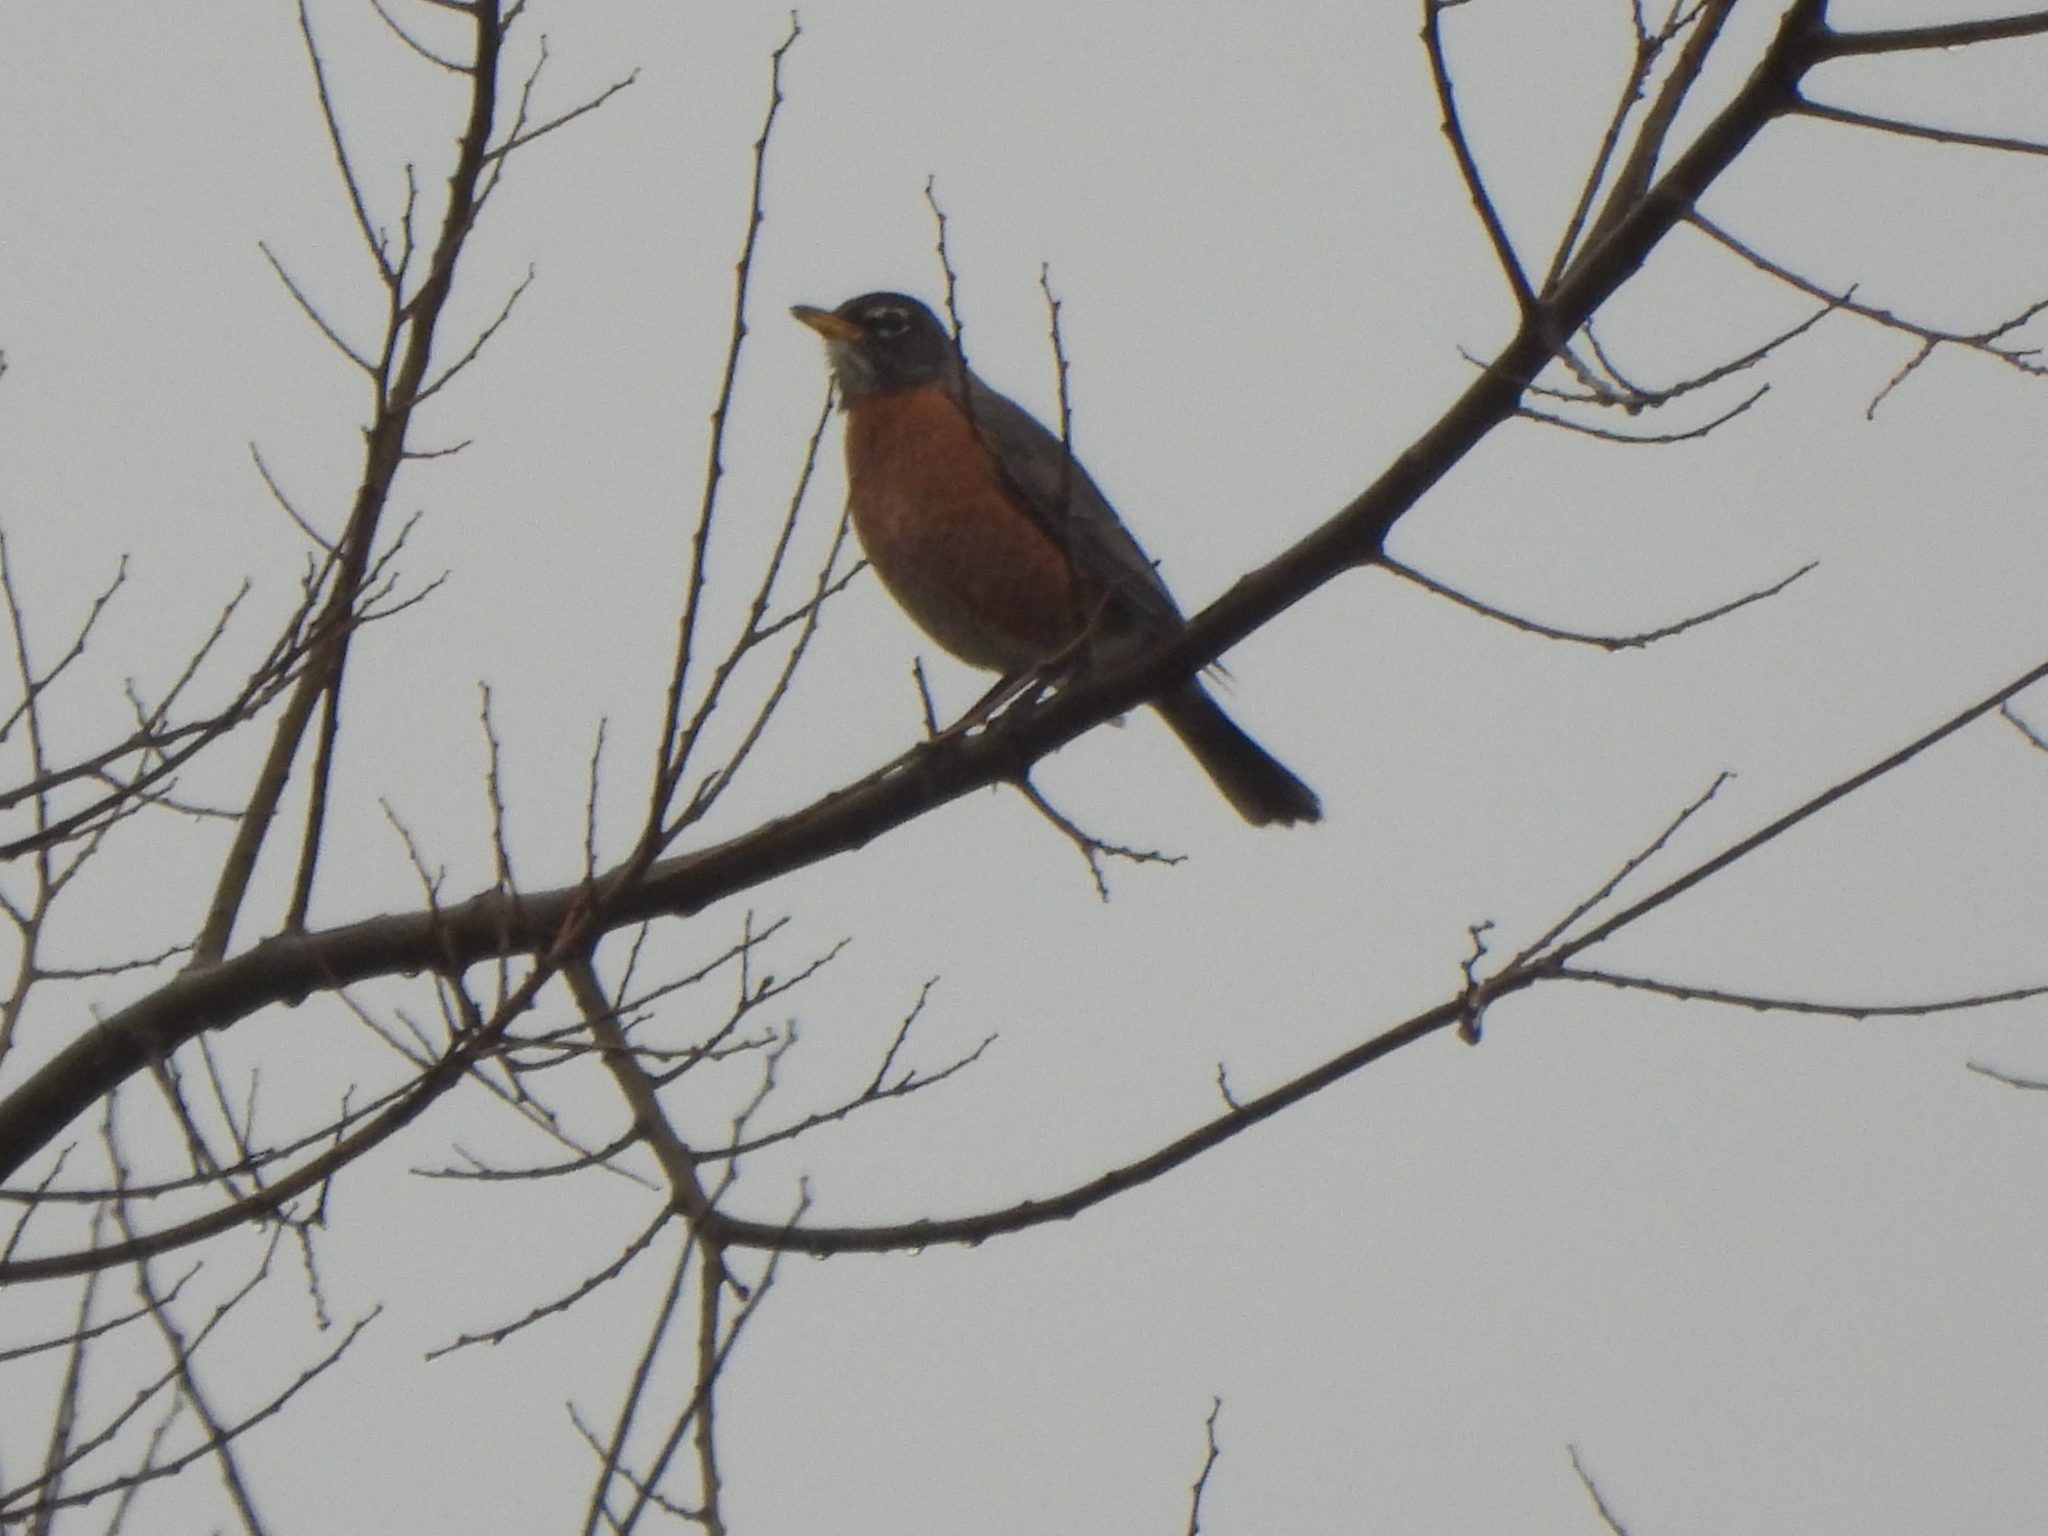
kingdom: Animalia
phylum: Chordata
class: Aves
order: Passeriformes
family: Turdidae
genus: Turdus
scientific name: Turdus migratorius
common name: American robin
